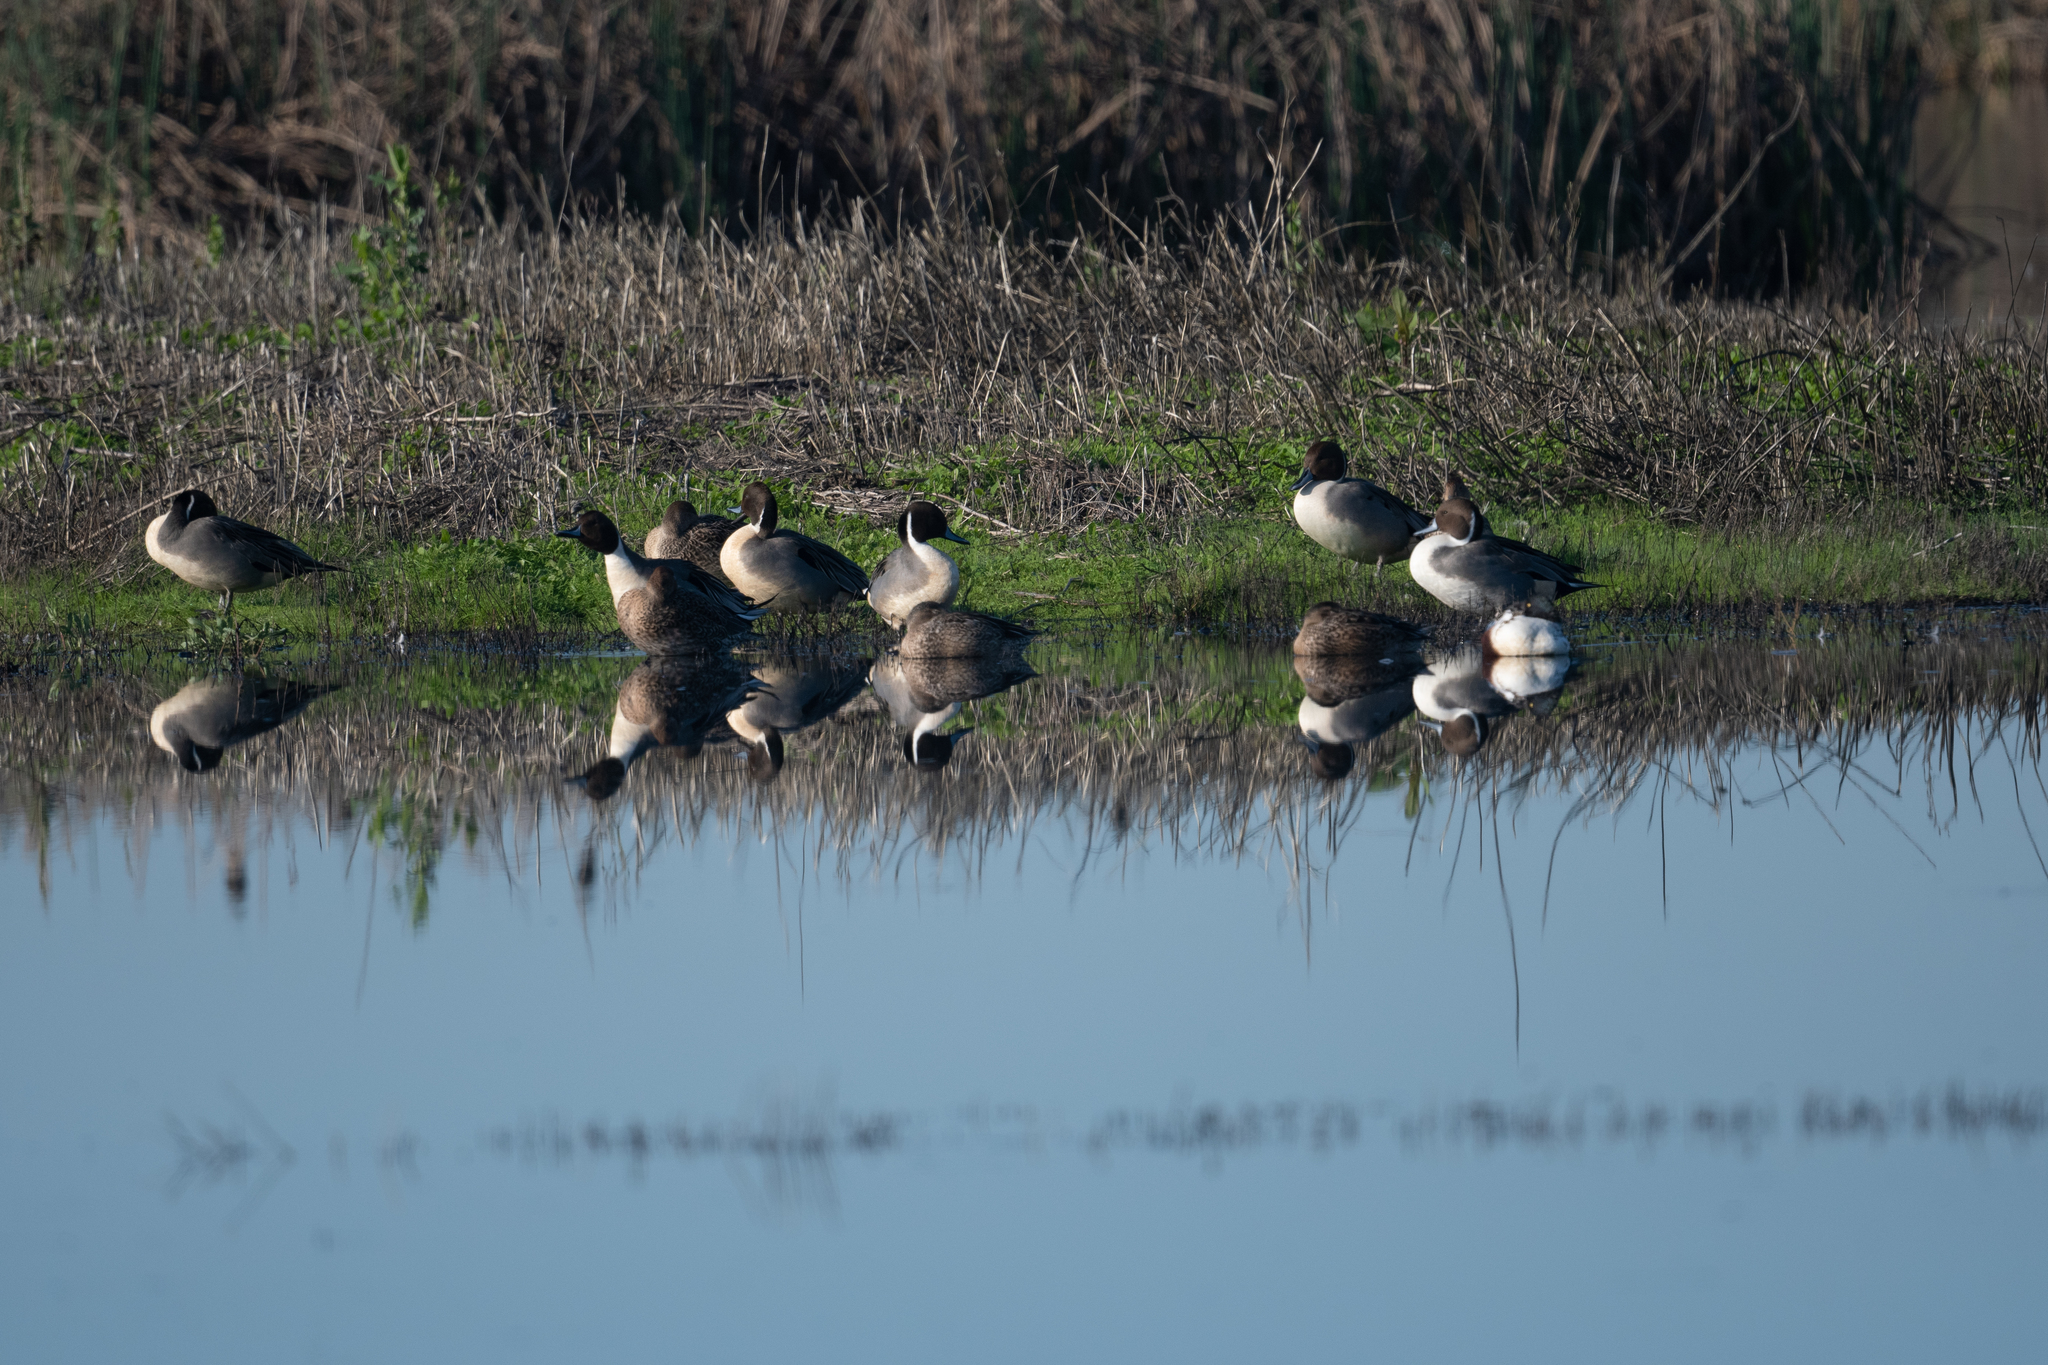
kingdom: Animalia
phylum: Chordata
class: Aves
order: Anseriformes
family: Anatidae
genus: Anas
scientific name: Anas acuta
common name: Northern pintail
